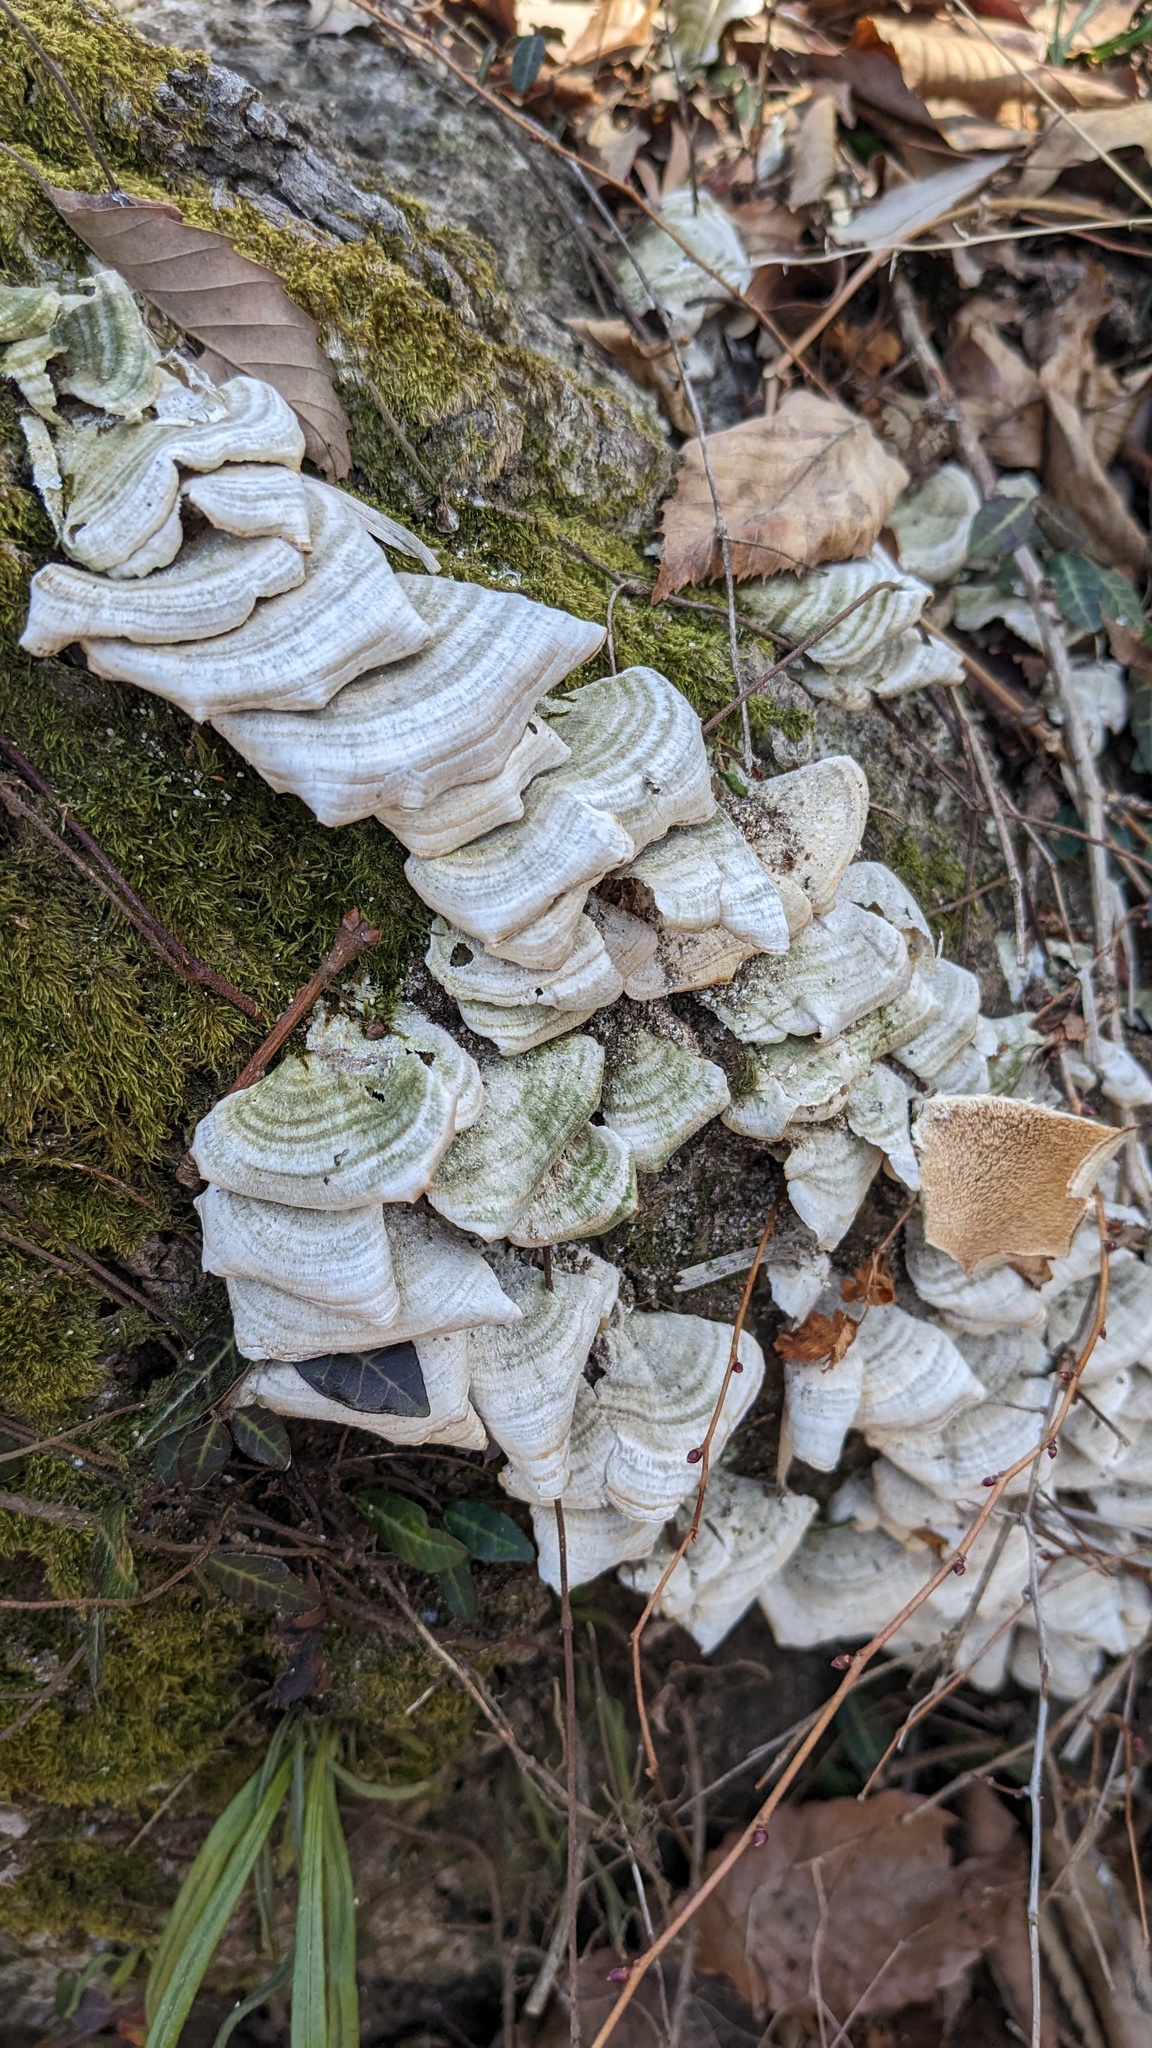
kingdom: Fungi
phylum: Basidiomycota
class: Agaricomycetes
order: Hymenochaetales
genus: Trichaptum
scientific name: Trichaptum biforme
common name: Violet-toothed polypore
